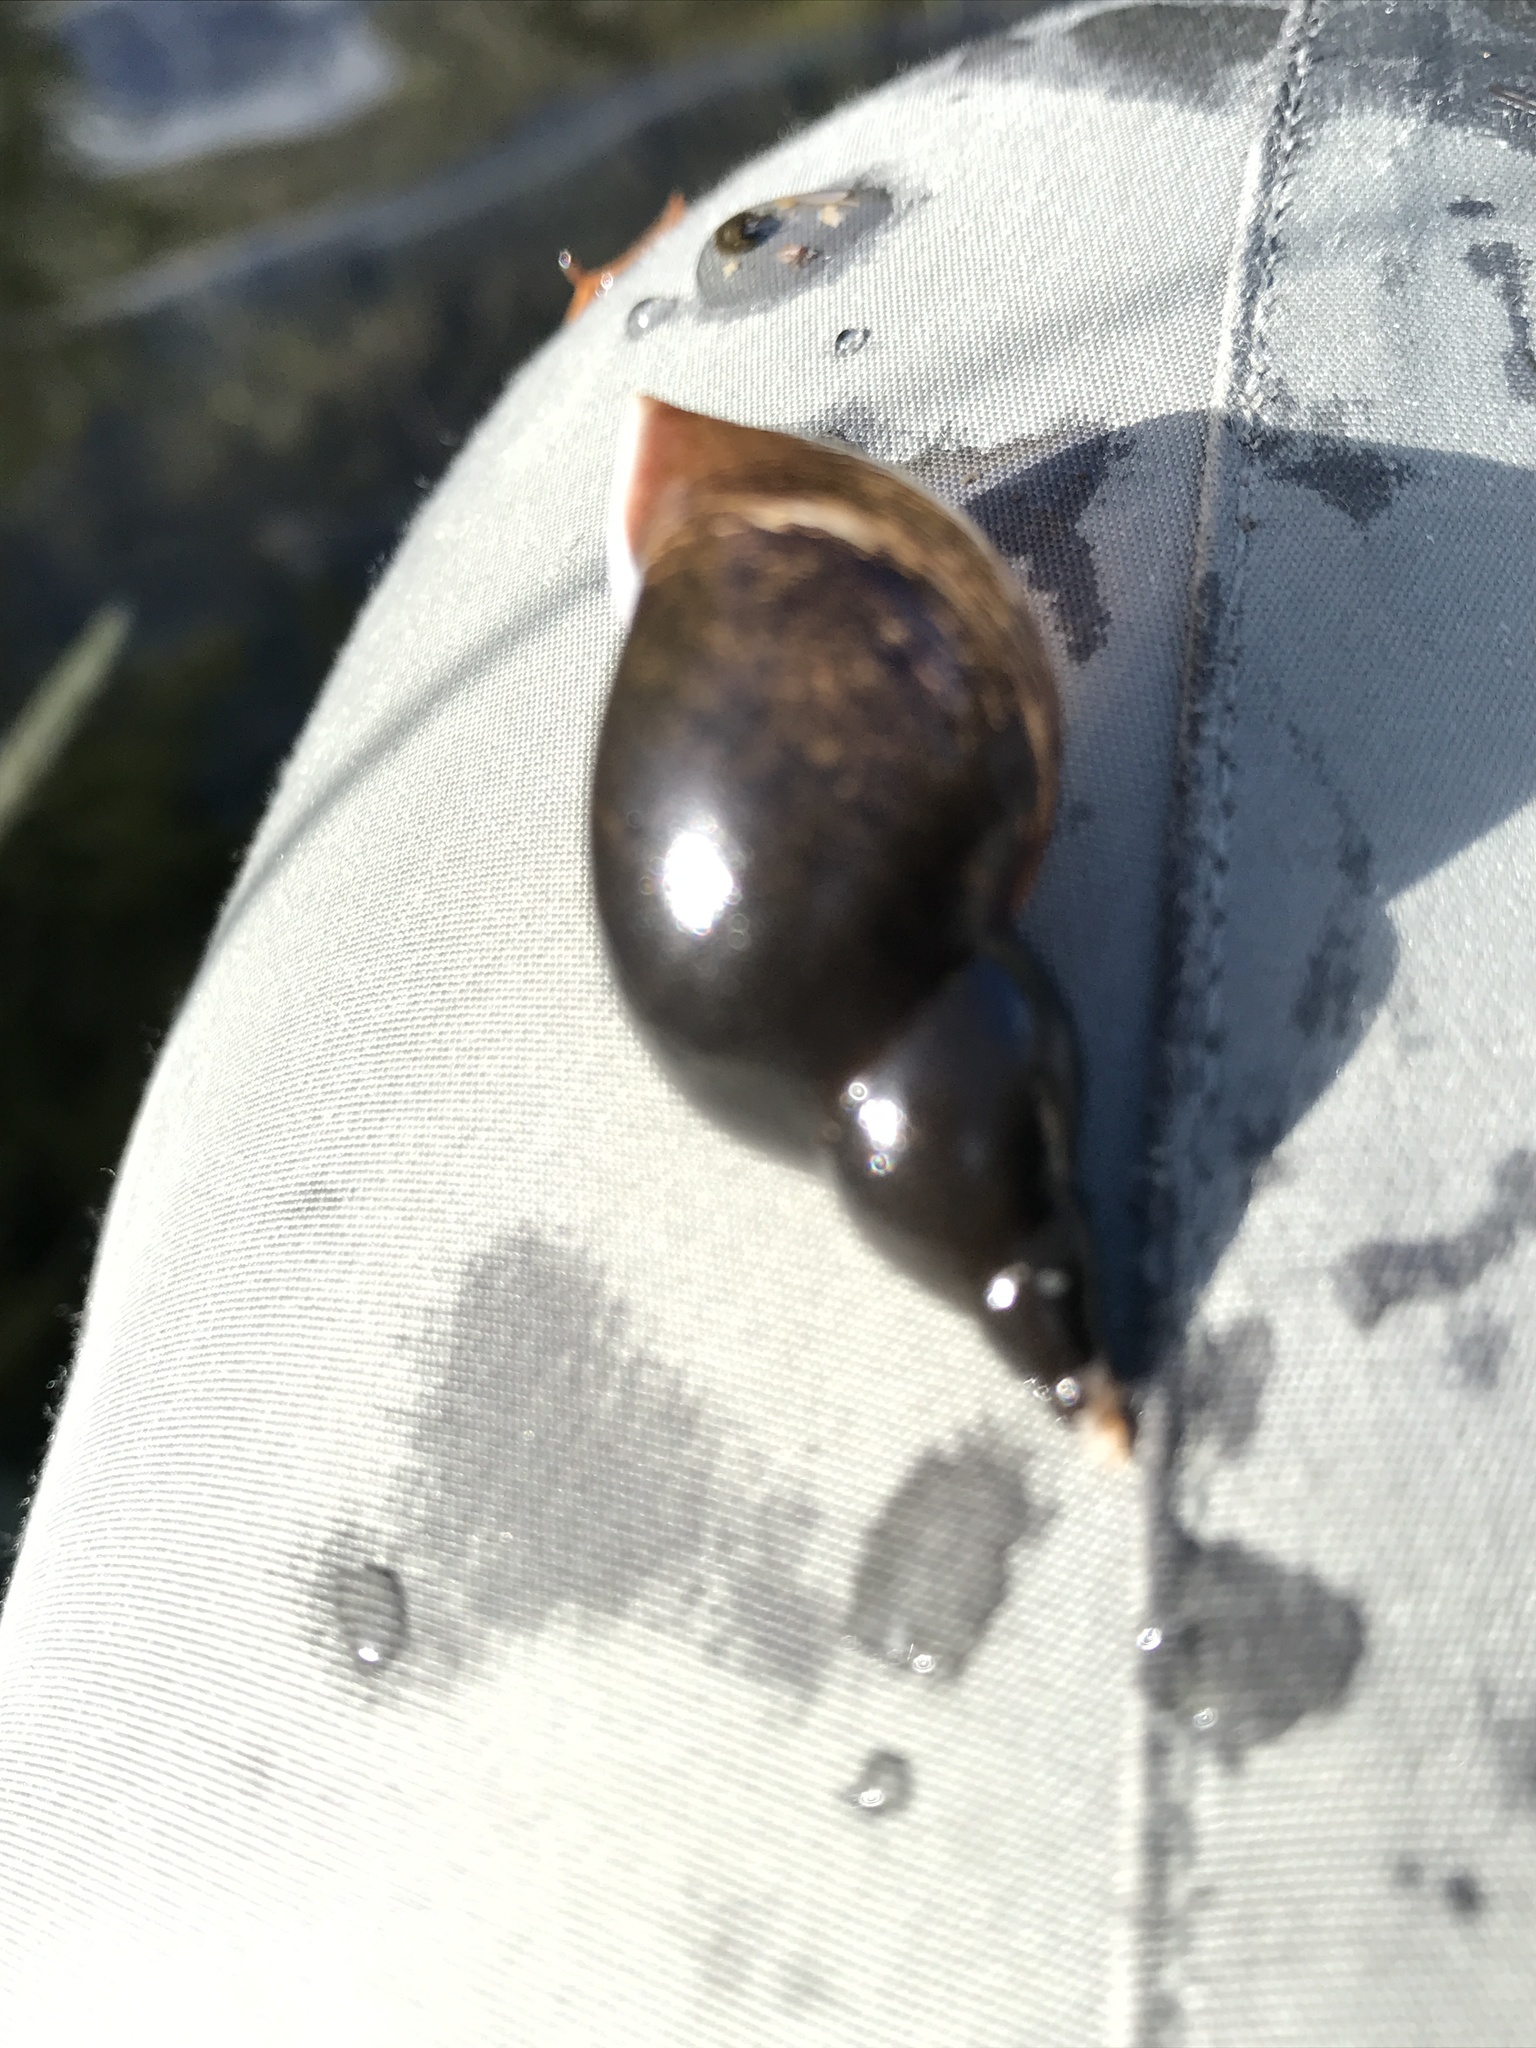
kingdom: Animalia
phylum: Mollusca
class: Gastropoda
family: Lymnaeidae
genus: Lymnaea
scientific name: Lymnaea stagnalis
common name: Great pond snail
